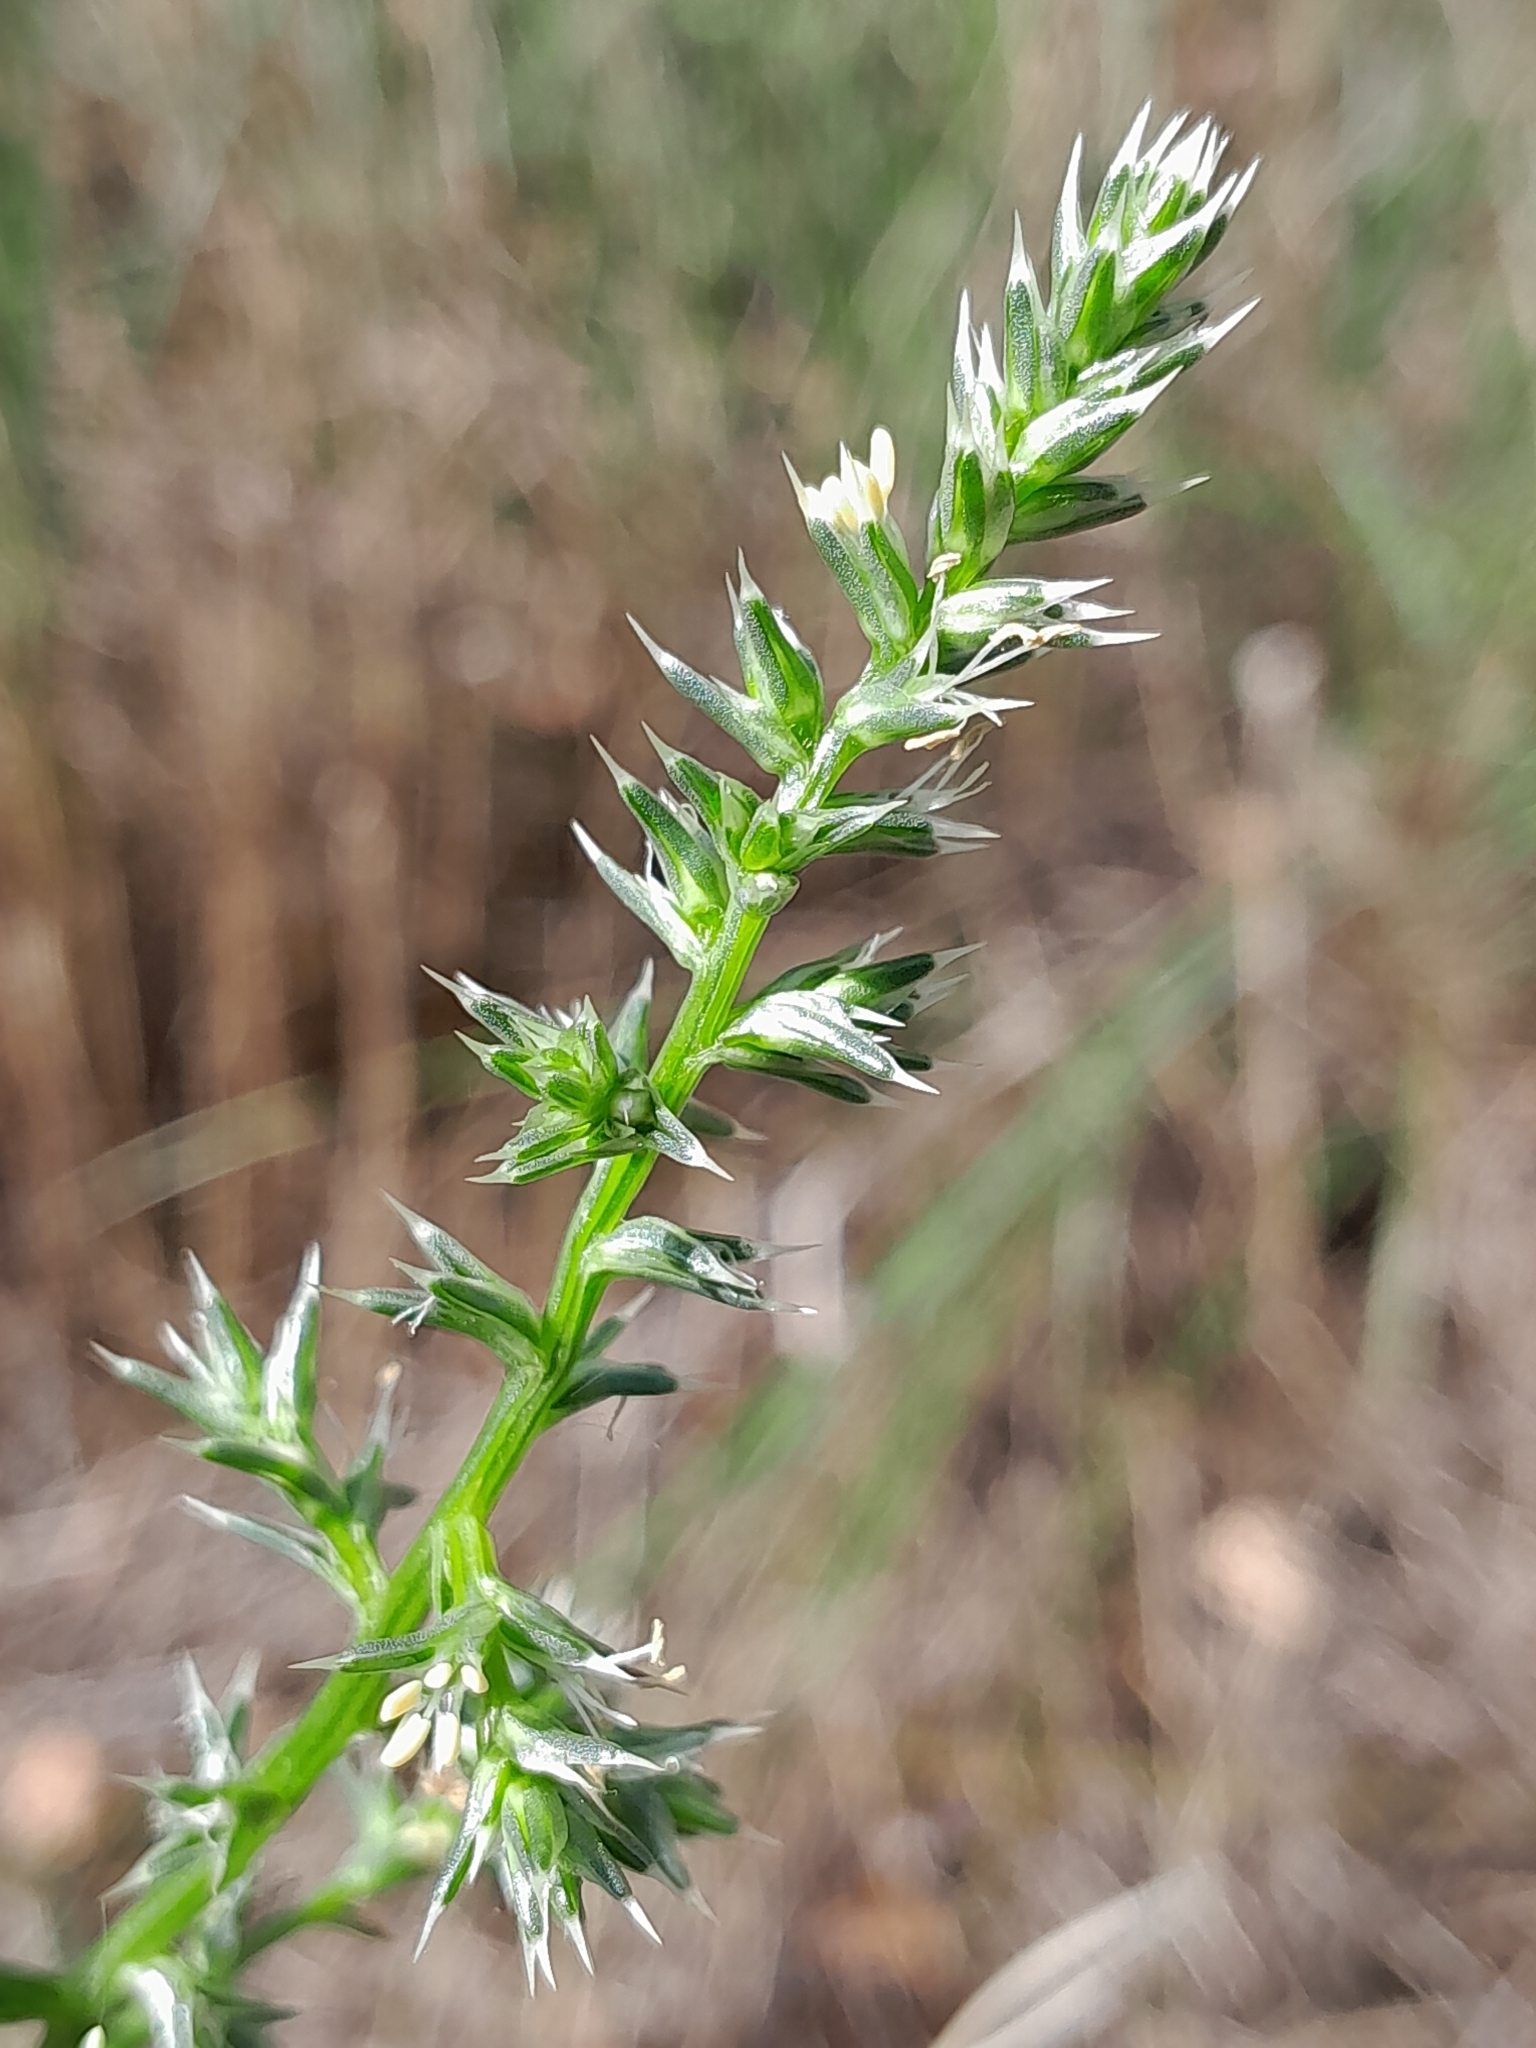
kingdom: Plantae
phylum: Tracheophyta
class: Magnoliopsida
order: Caryophyllales
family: Amaranthaceae
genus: Salsola
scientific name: Salsola tragus
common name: Prickly russian thistle
